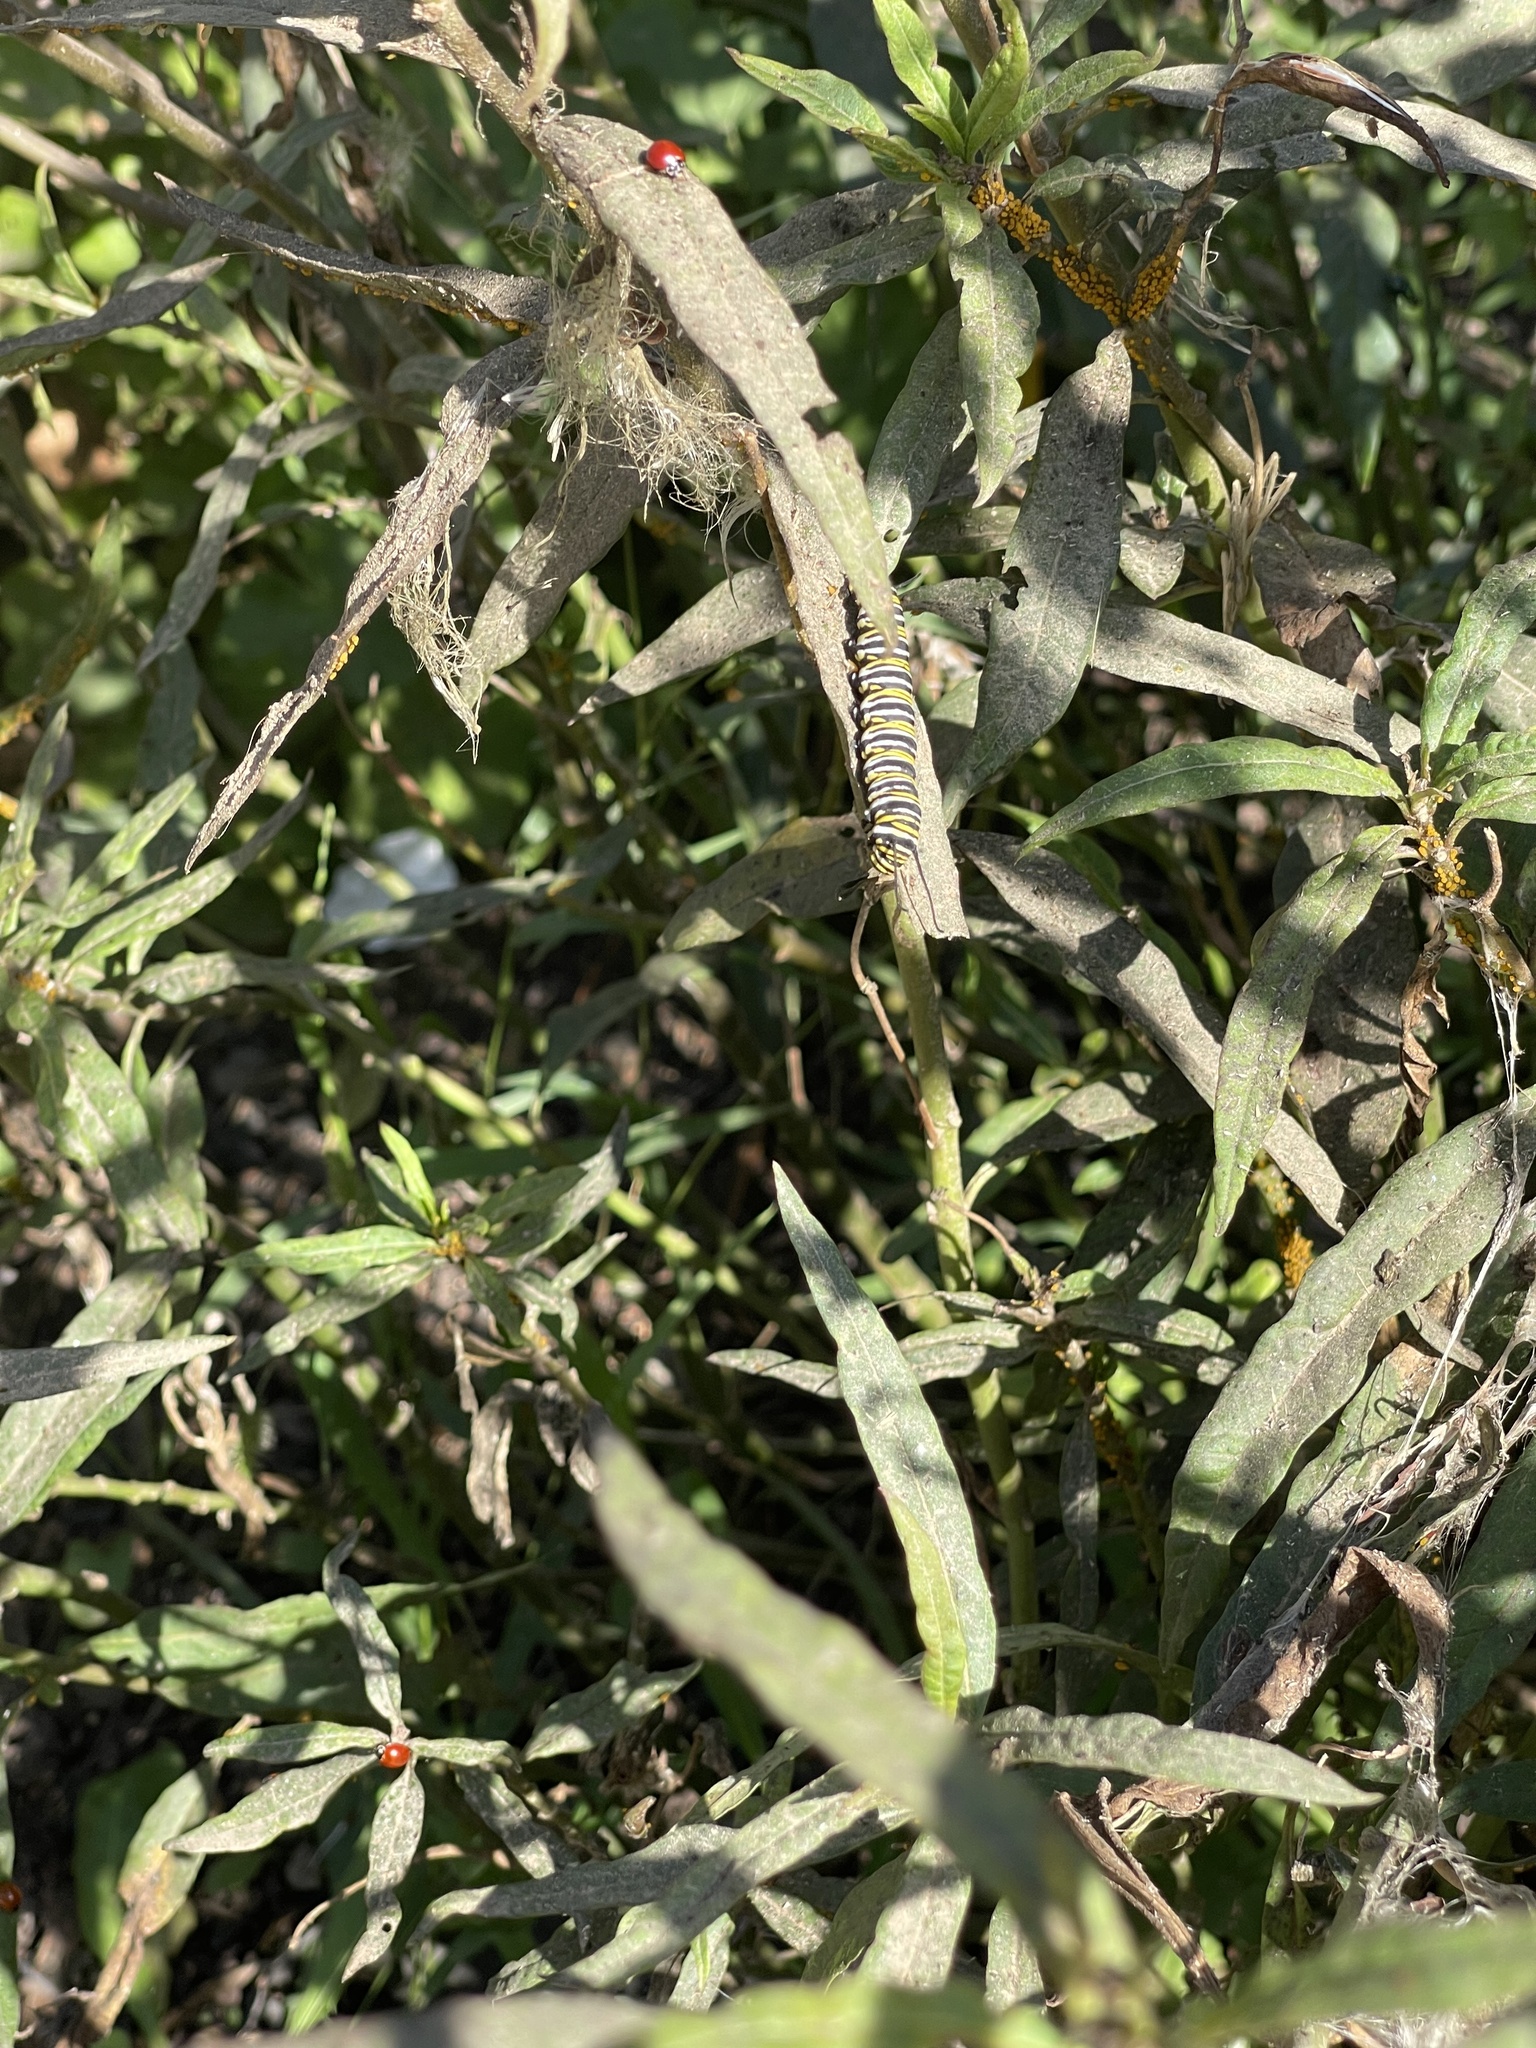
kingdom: Animalia
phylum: Arthropoda
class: Insecta
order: Lepidoptera
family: Nymphalidae
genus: Danaus
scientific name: Danaus plexippus
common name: Monarch
